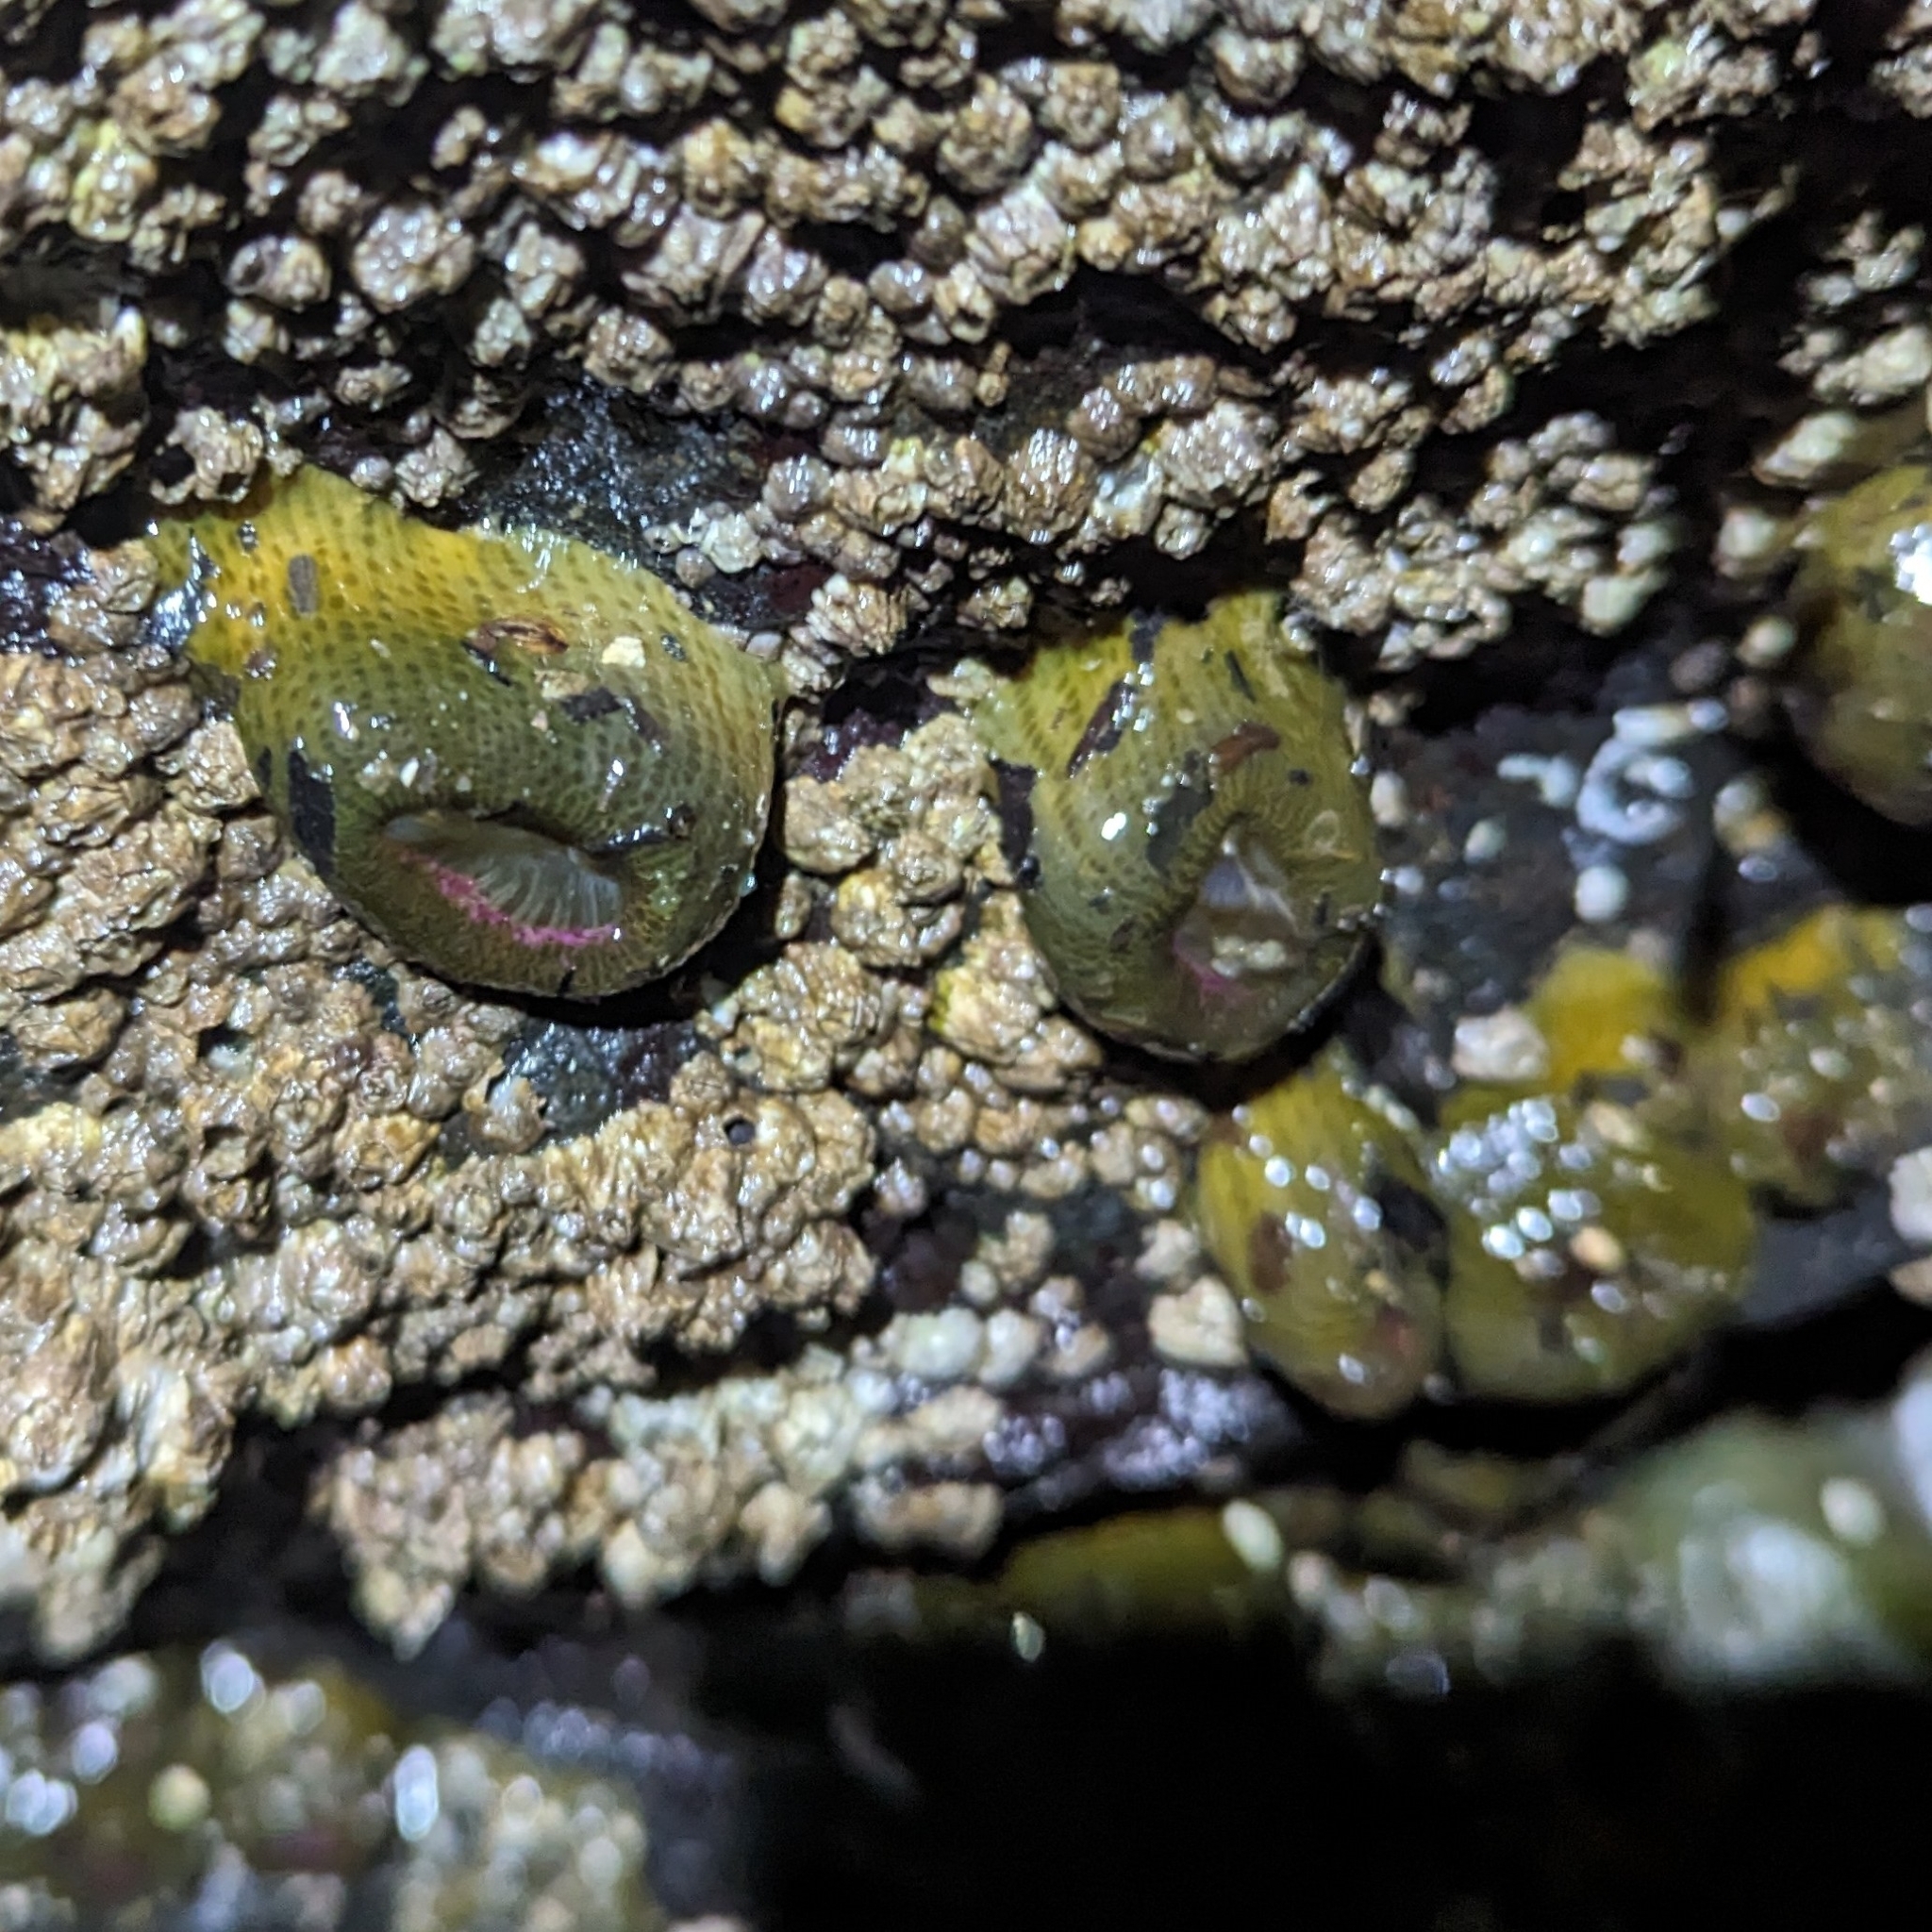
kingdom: Animalia
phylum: Cnidaria
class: Anthozoa
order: Actiniaria
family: Actiniidae
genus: Anthopleura
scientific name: Anthopleura elegantissima
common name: Clonal anemone
